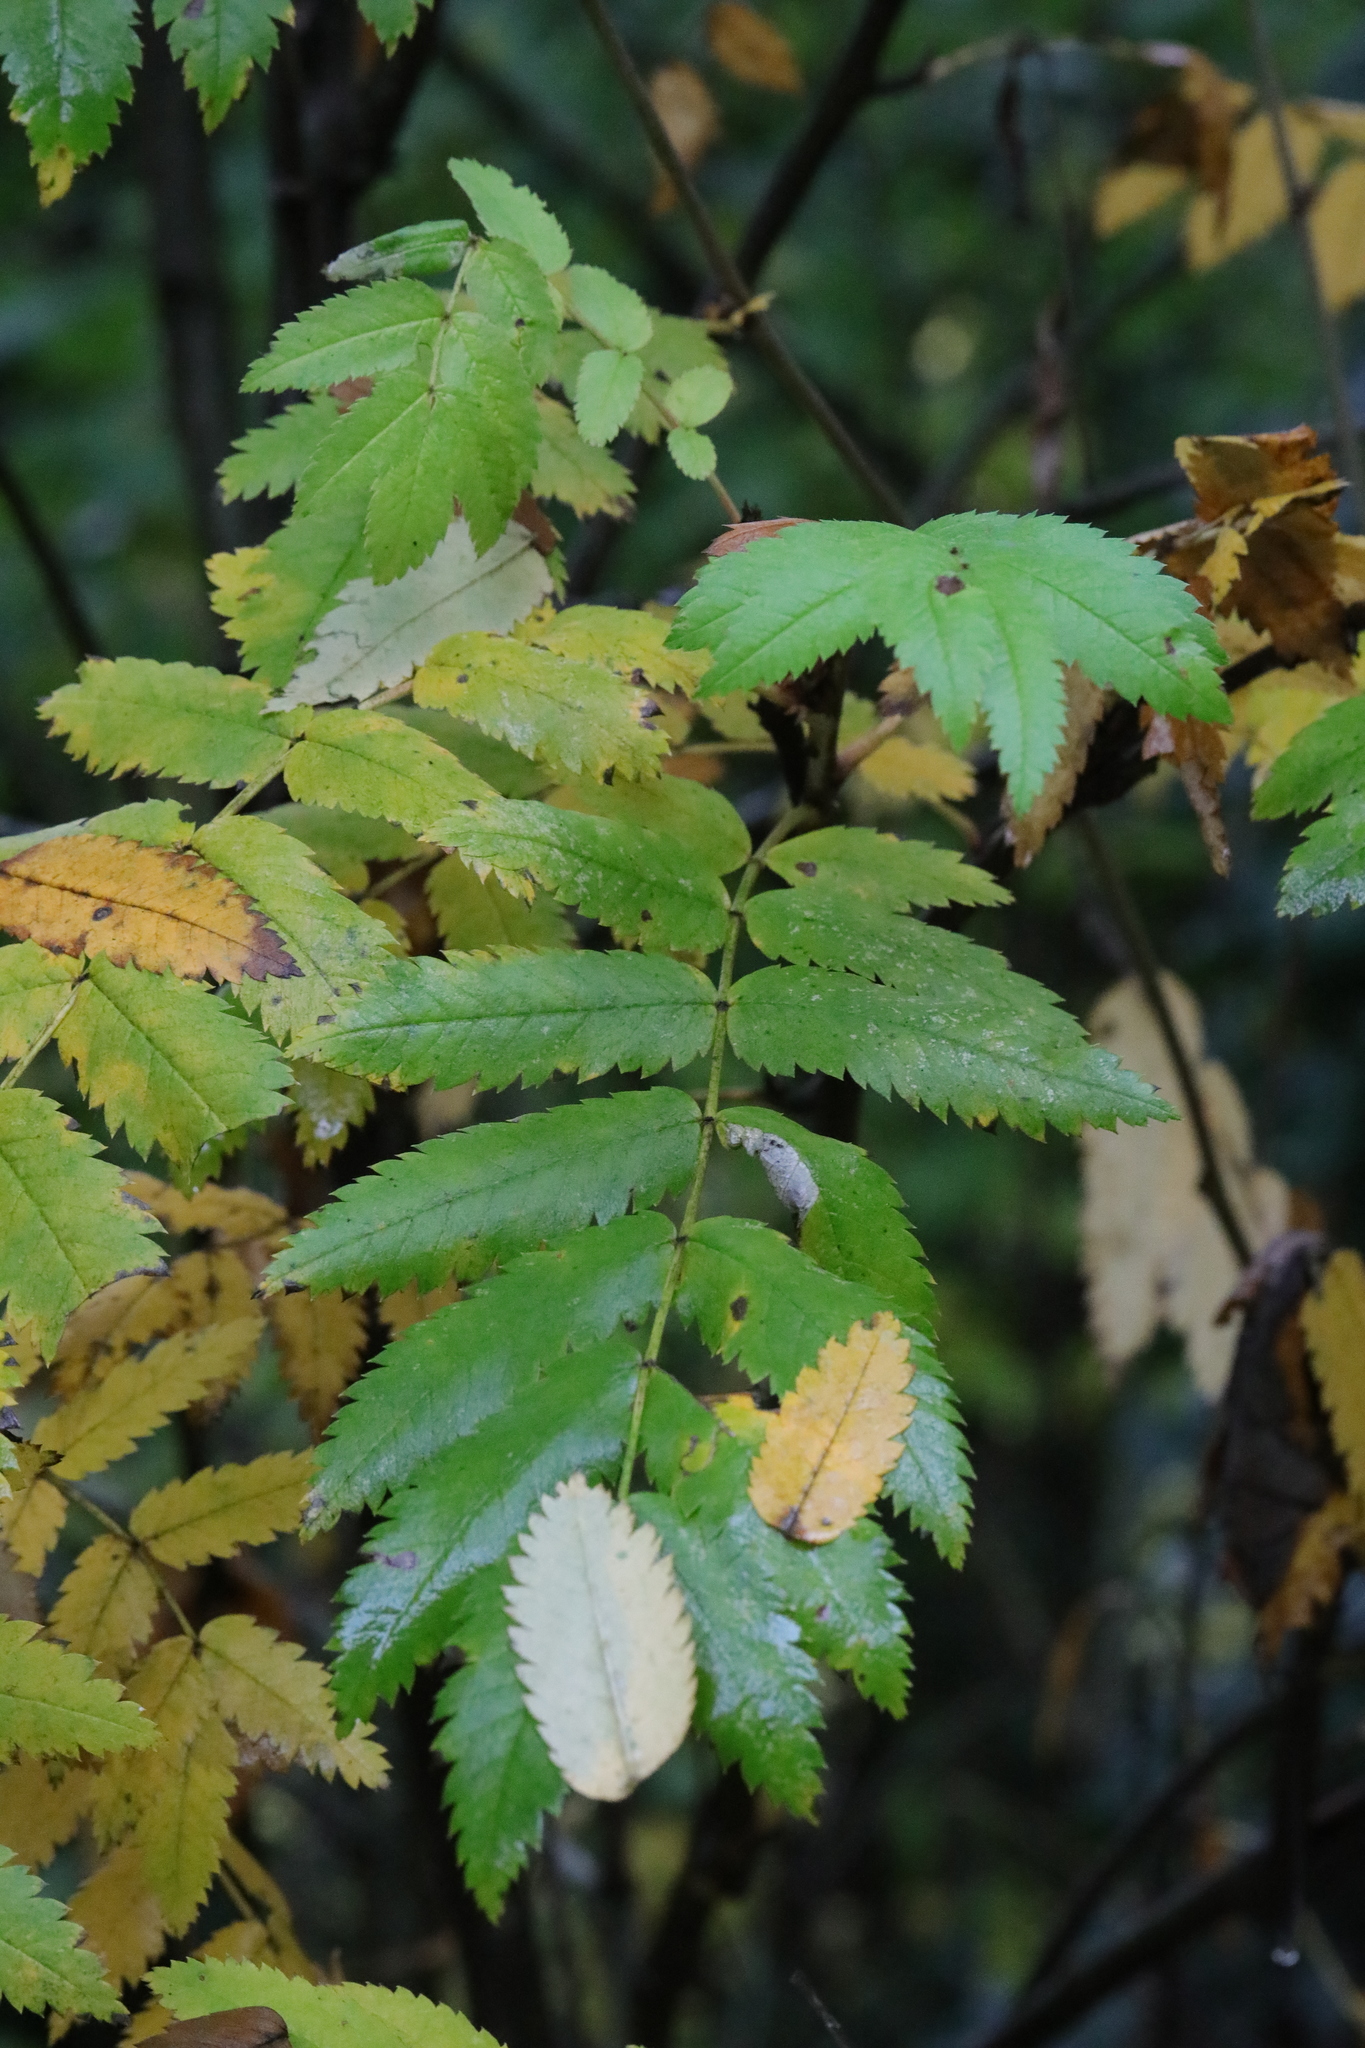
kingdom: Plantae
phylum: Tracheophyta
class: Magnoliopsida
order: Rosales
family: Rosaceae
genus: Sorbus
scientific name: Sorbus aucuparia
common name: Rowan
